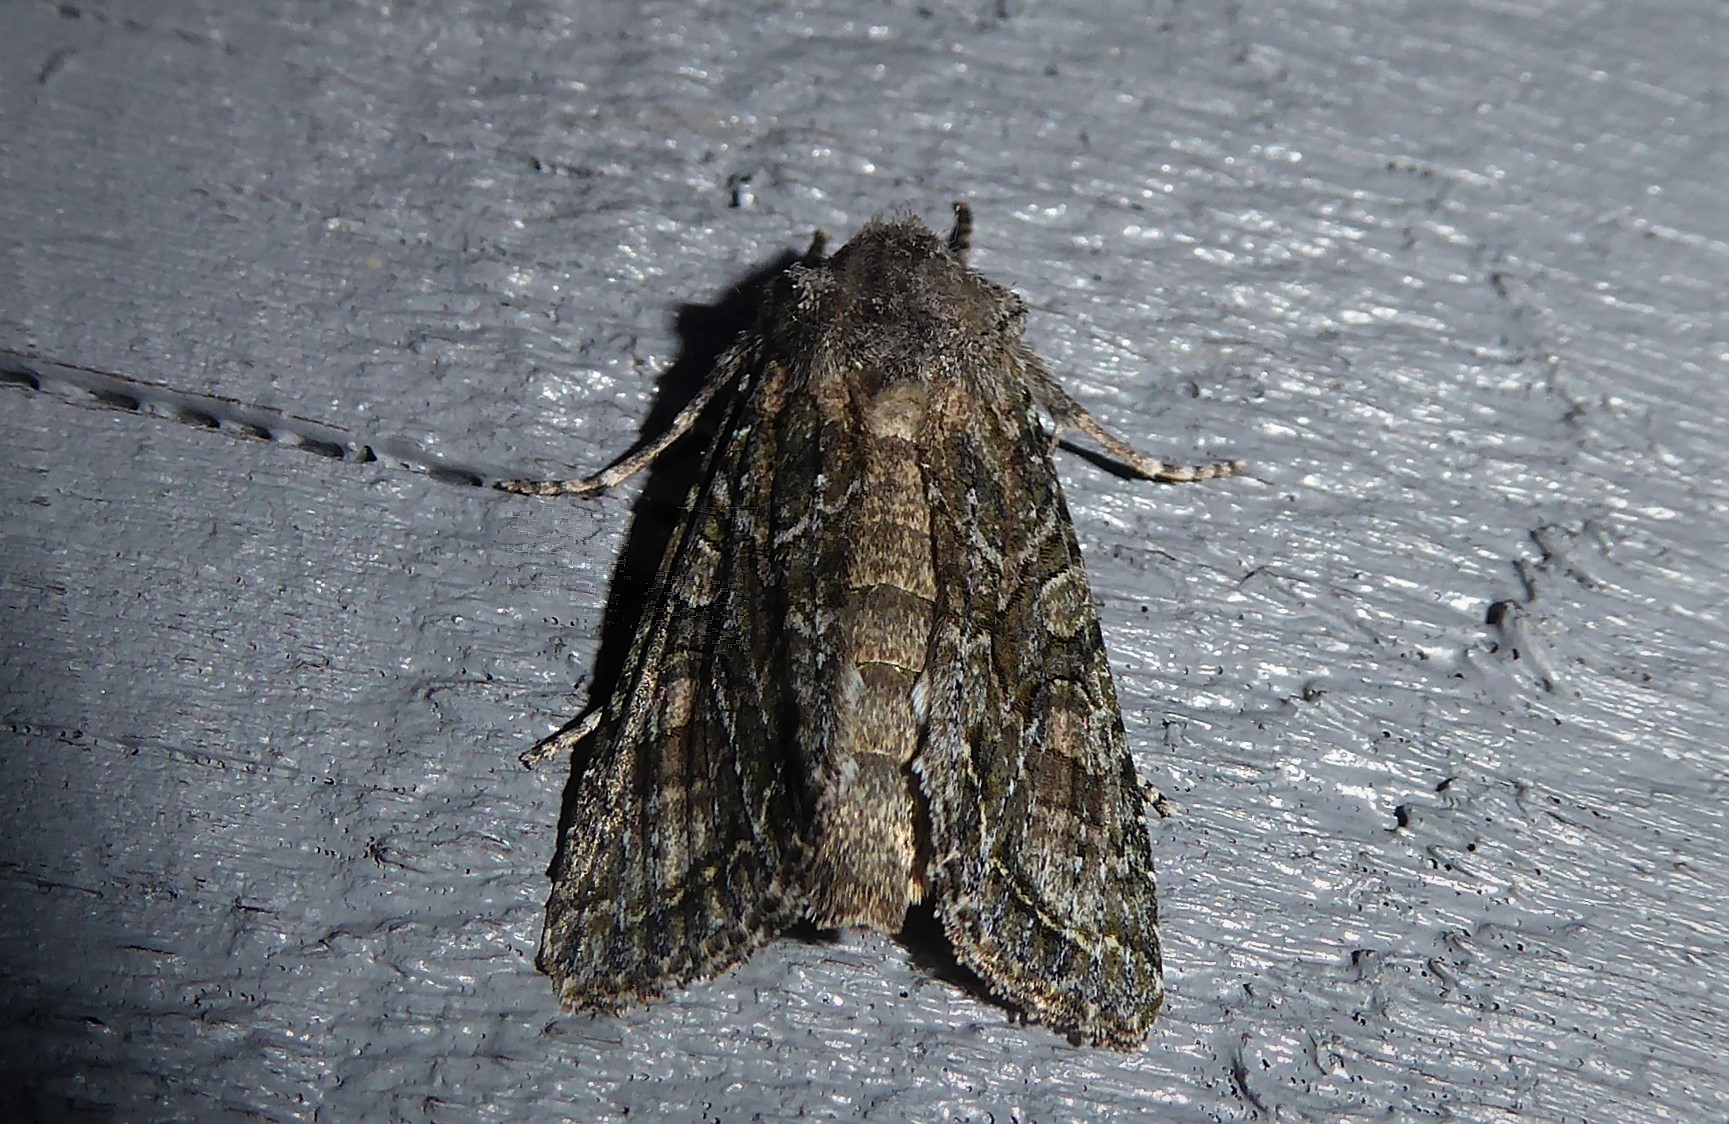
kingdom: Animalia
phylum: Arthropoda
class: Insecta
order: Lepidoptera
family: Noctuidae
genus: Ichneutica
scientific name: Ichneutica mutans
